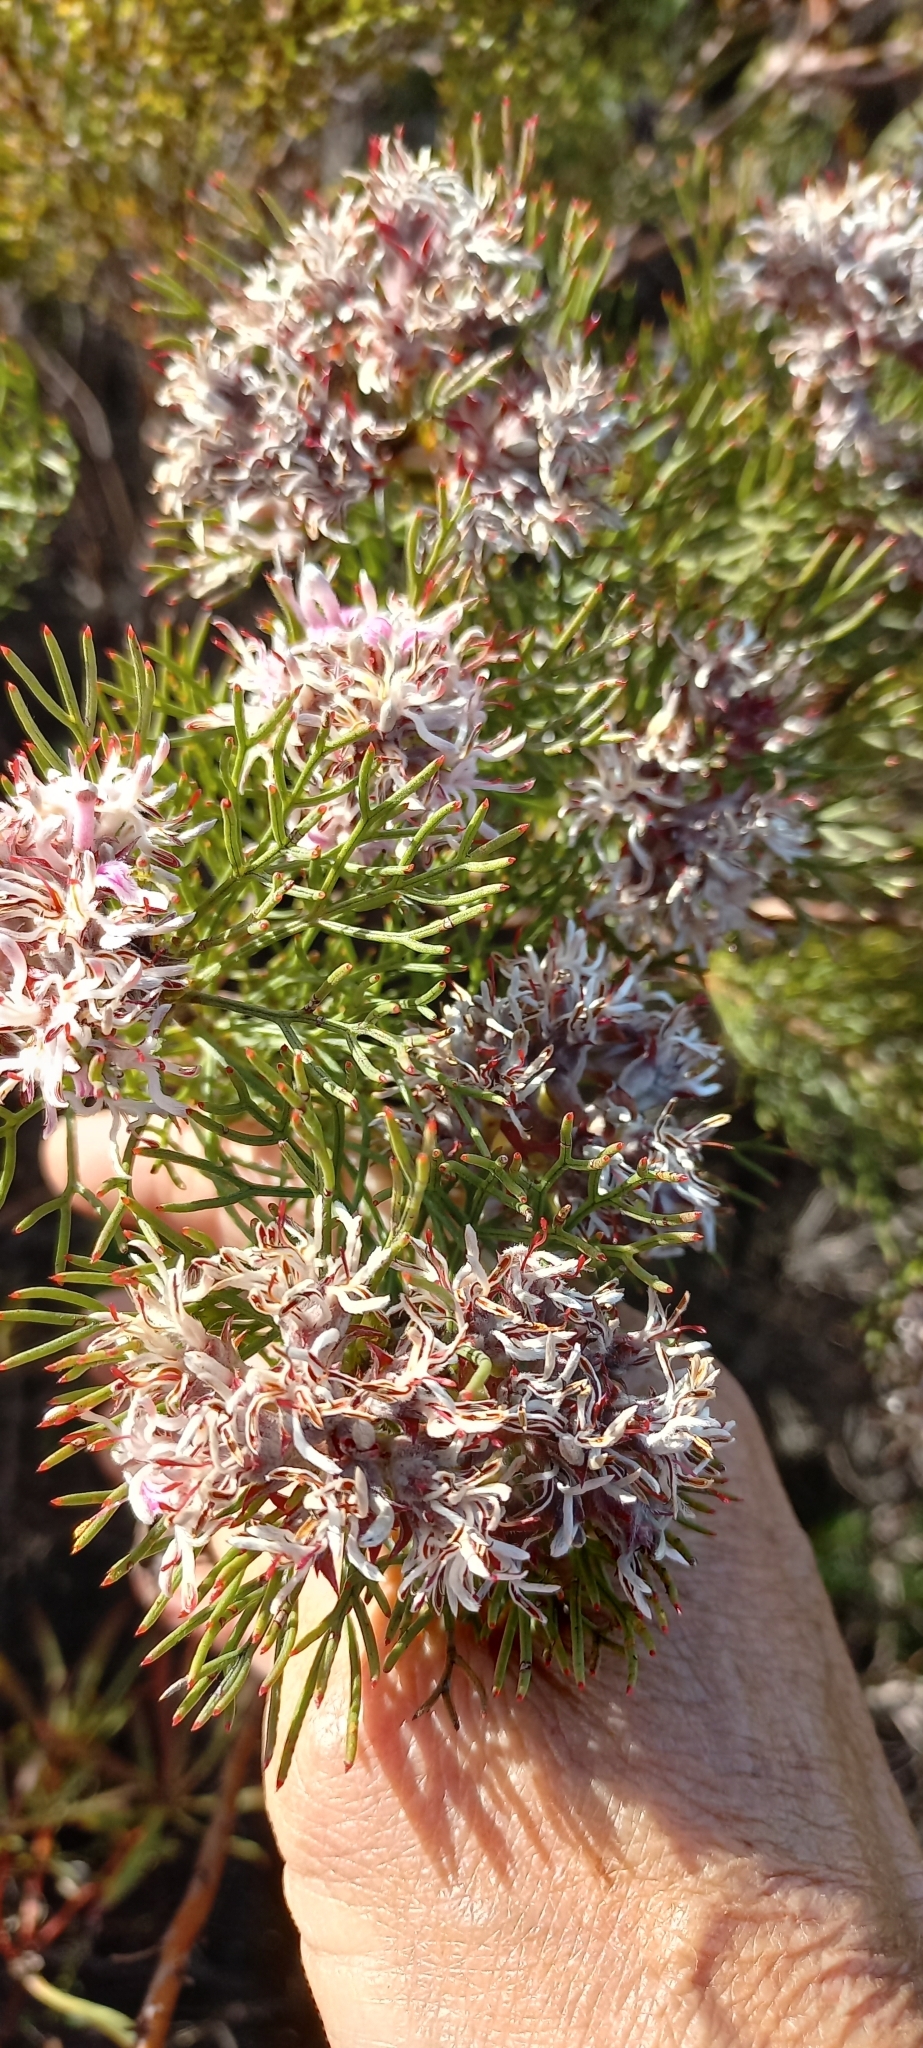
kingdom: Plantae
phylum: Tracheophyta
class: Magnoliopsida
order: Proteales
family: Proteaceae
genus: Serruria
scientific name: Serruria rubricaulis
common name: Red-stem spiderhead
